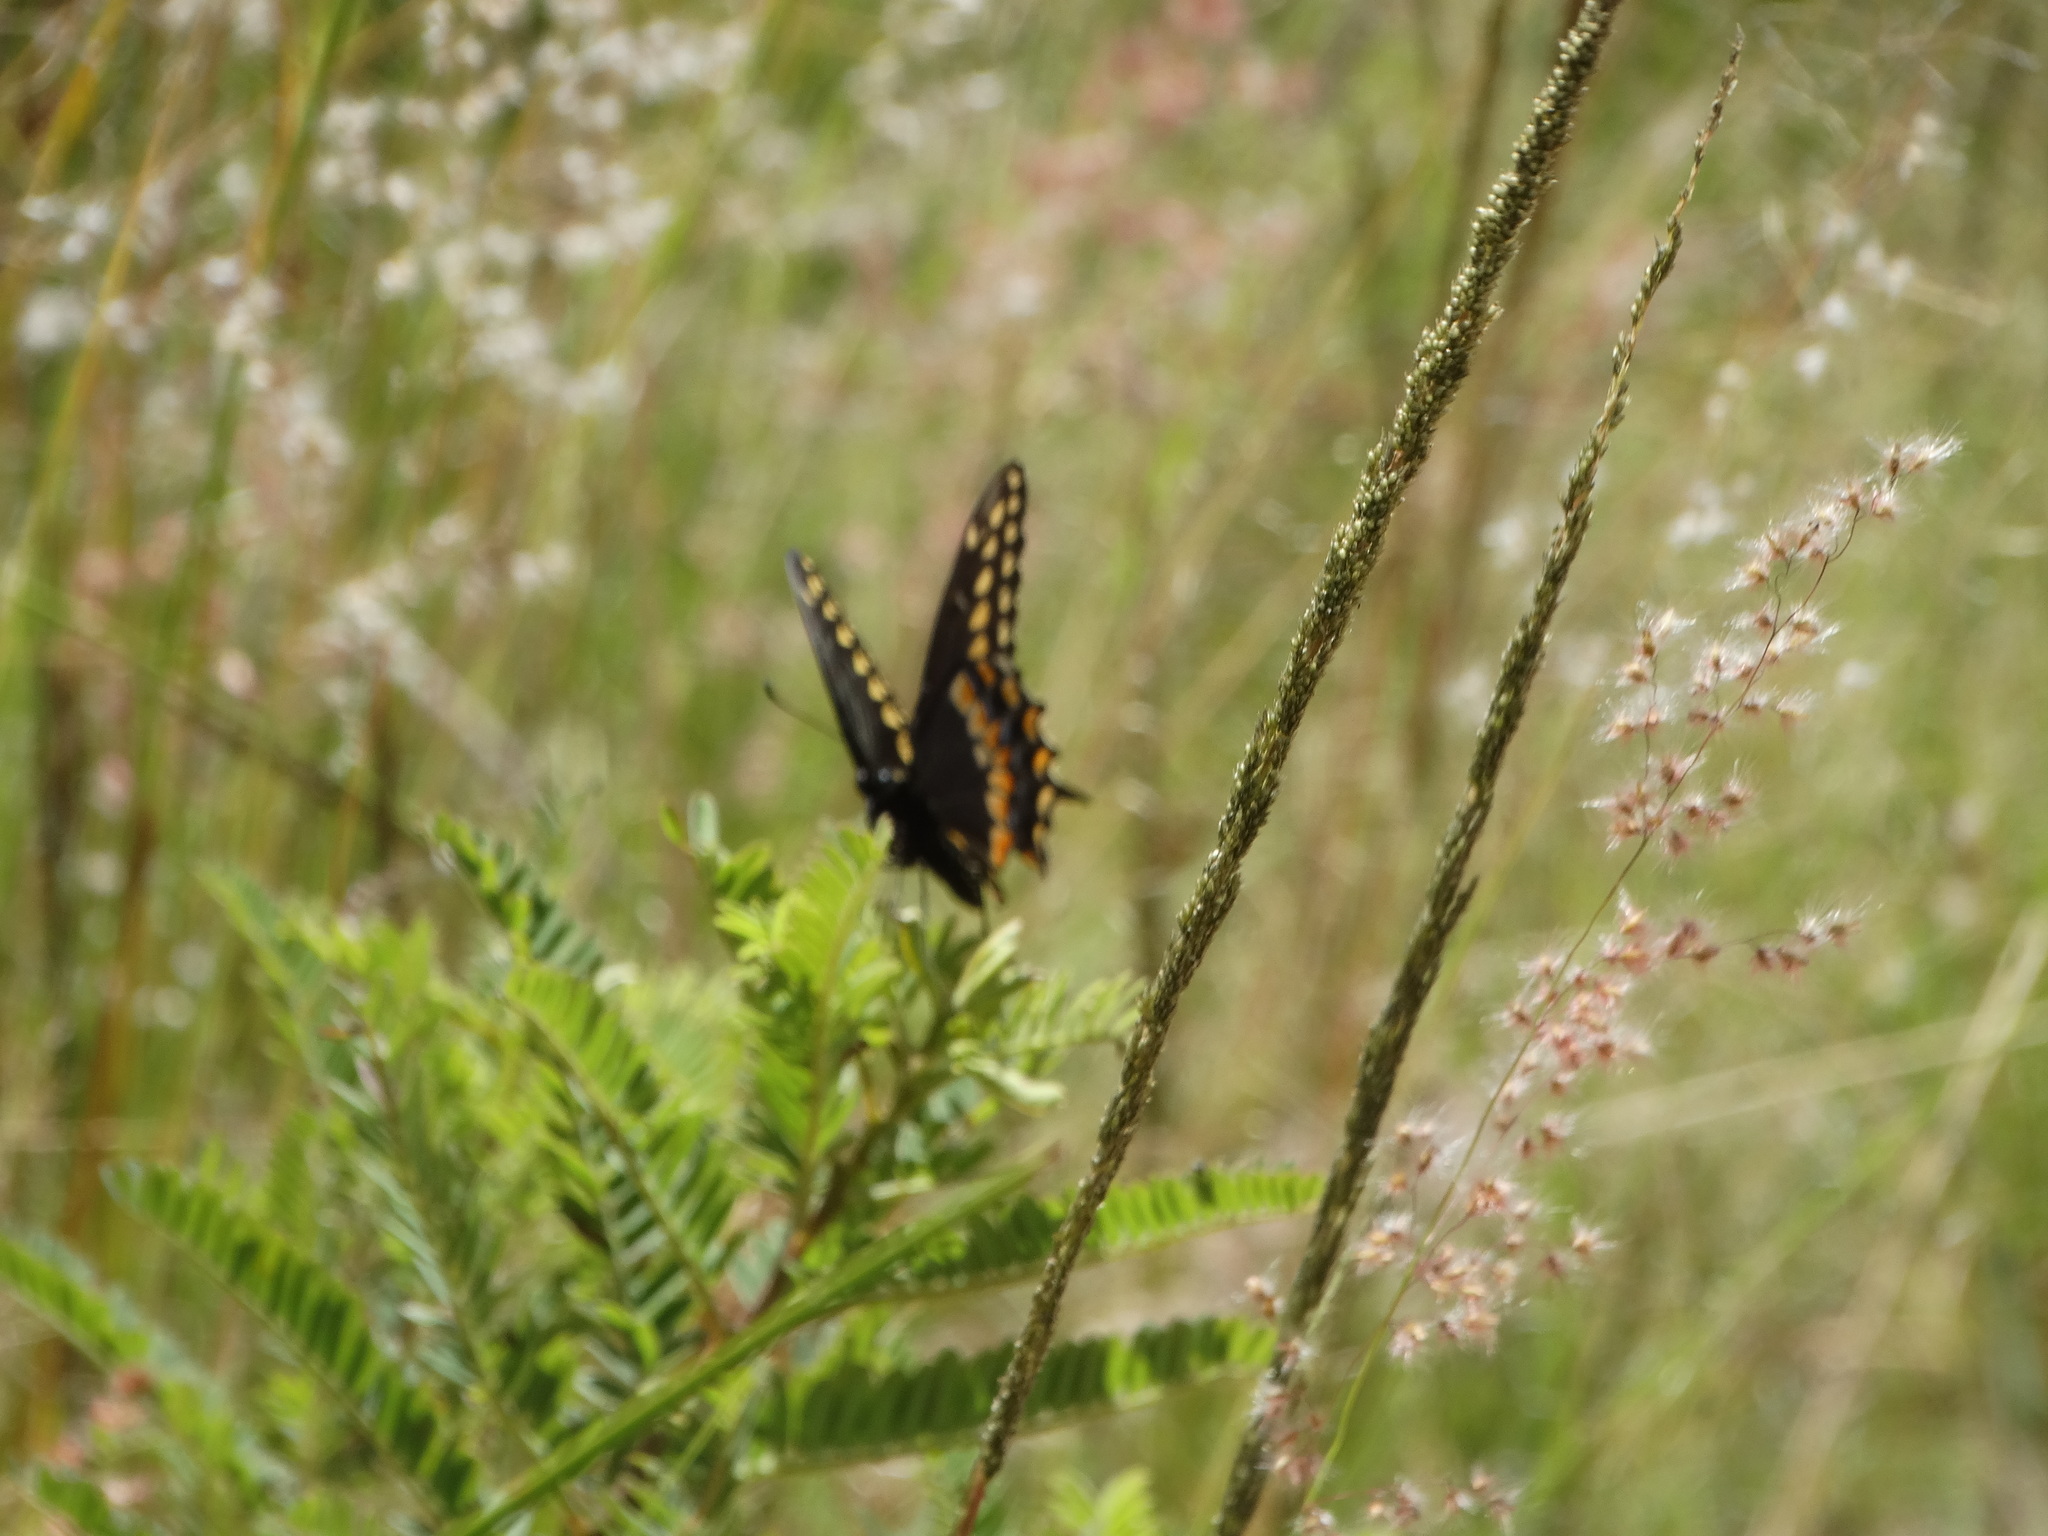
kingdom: Animalia
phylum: Arthropoda
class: Insecta
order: Lepidoptera
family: Papilionidae
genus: Papilio
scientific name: Papilio polyxenes
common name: Black swallowtail
